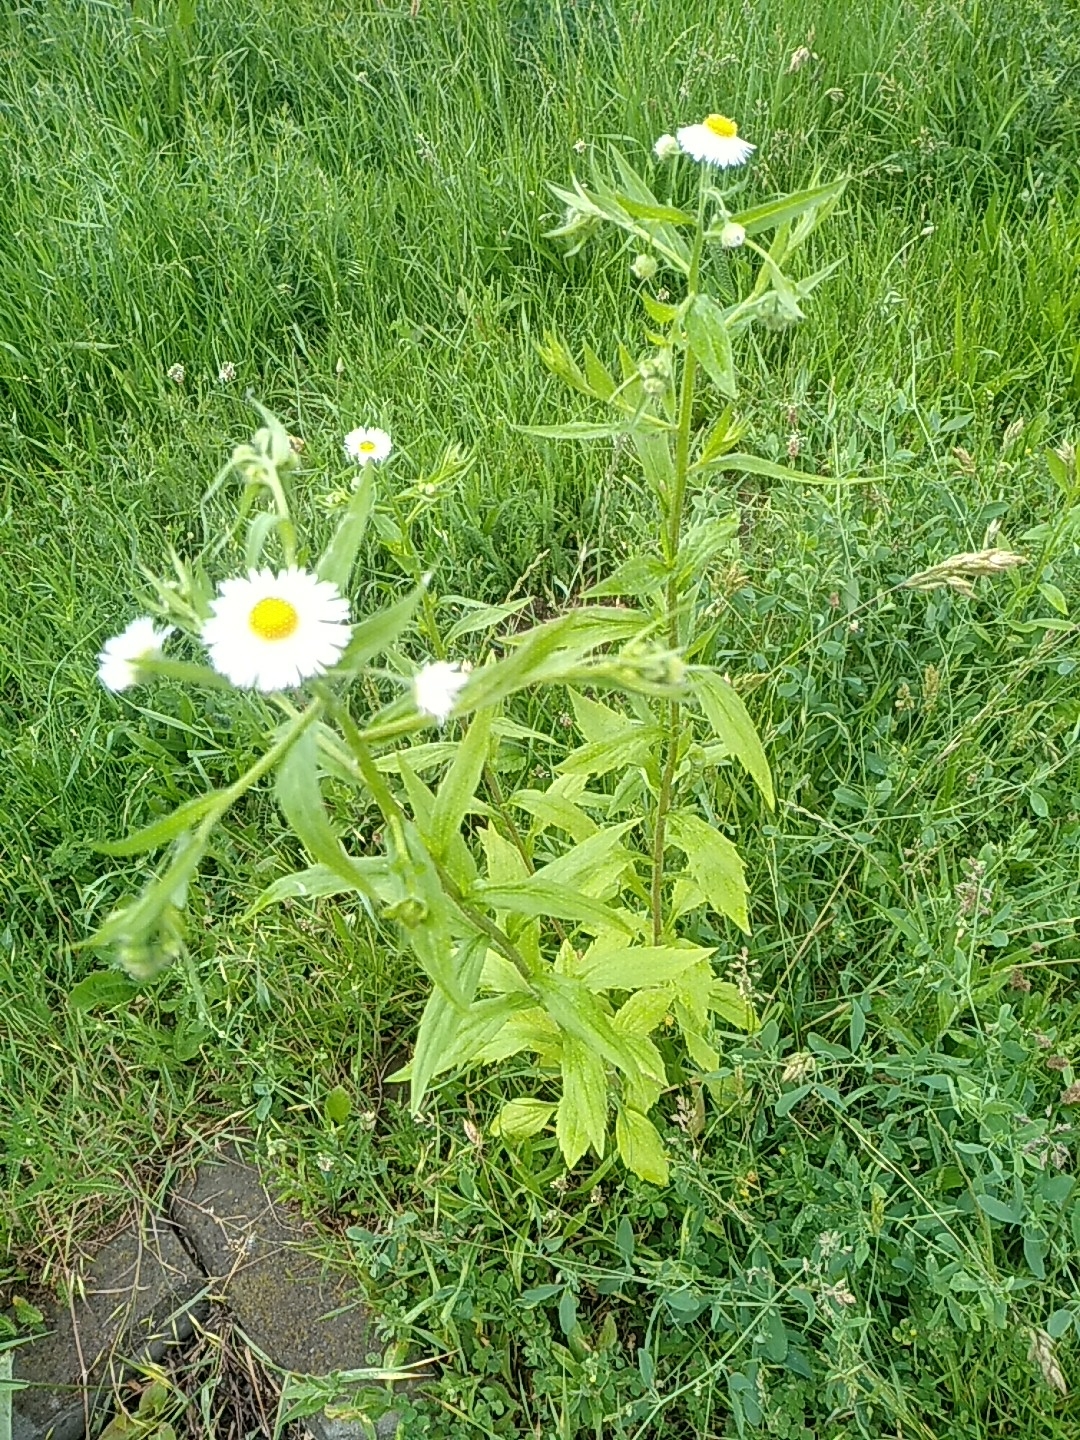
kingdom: Plantae
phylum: Tracheophyta
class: Magnoliopsida
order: Asterales
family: Asteraceae
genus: Erigeron
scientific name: Erigeron annuus
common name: Tall fleabane
